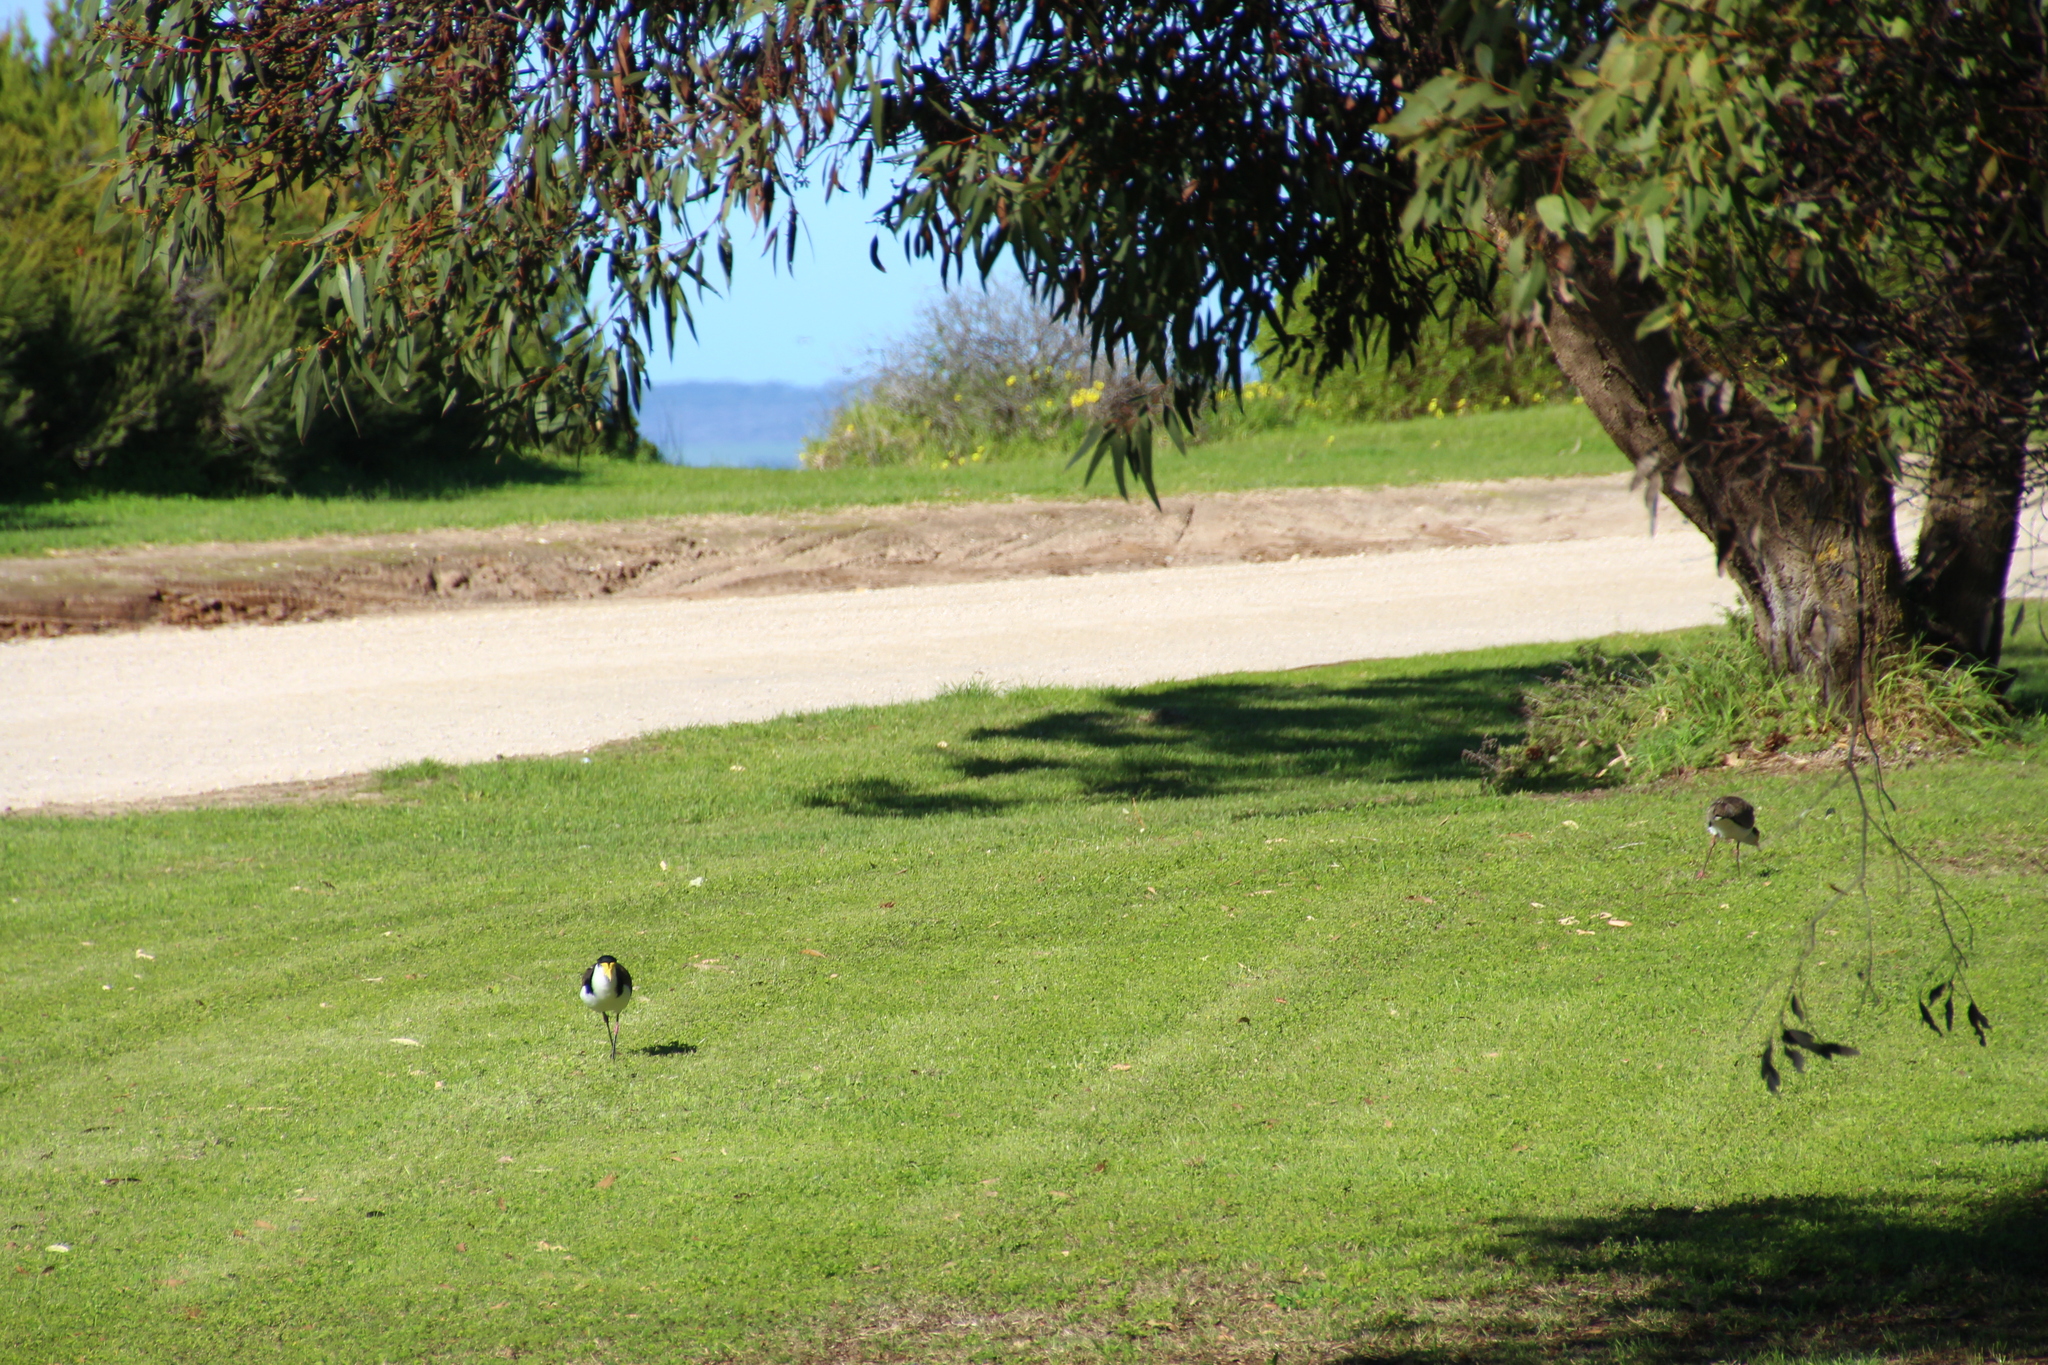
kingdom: Animalia
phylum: Chordata
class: Aves
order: Charadriiformes
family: Charadriidae
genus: Vanellus
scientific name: Vanellus miles
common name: Masked lapwing
